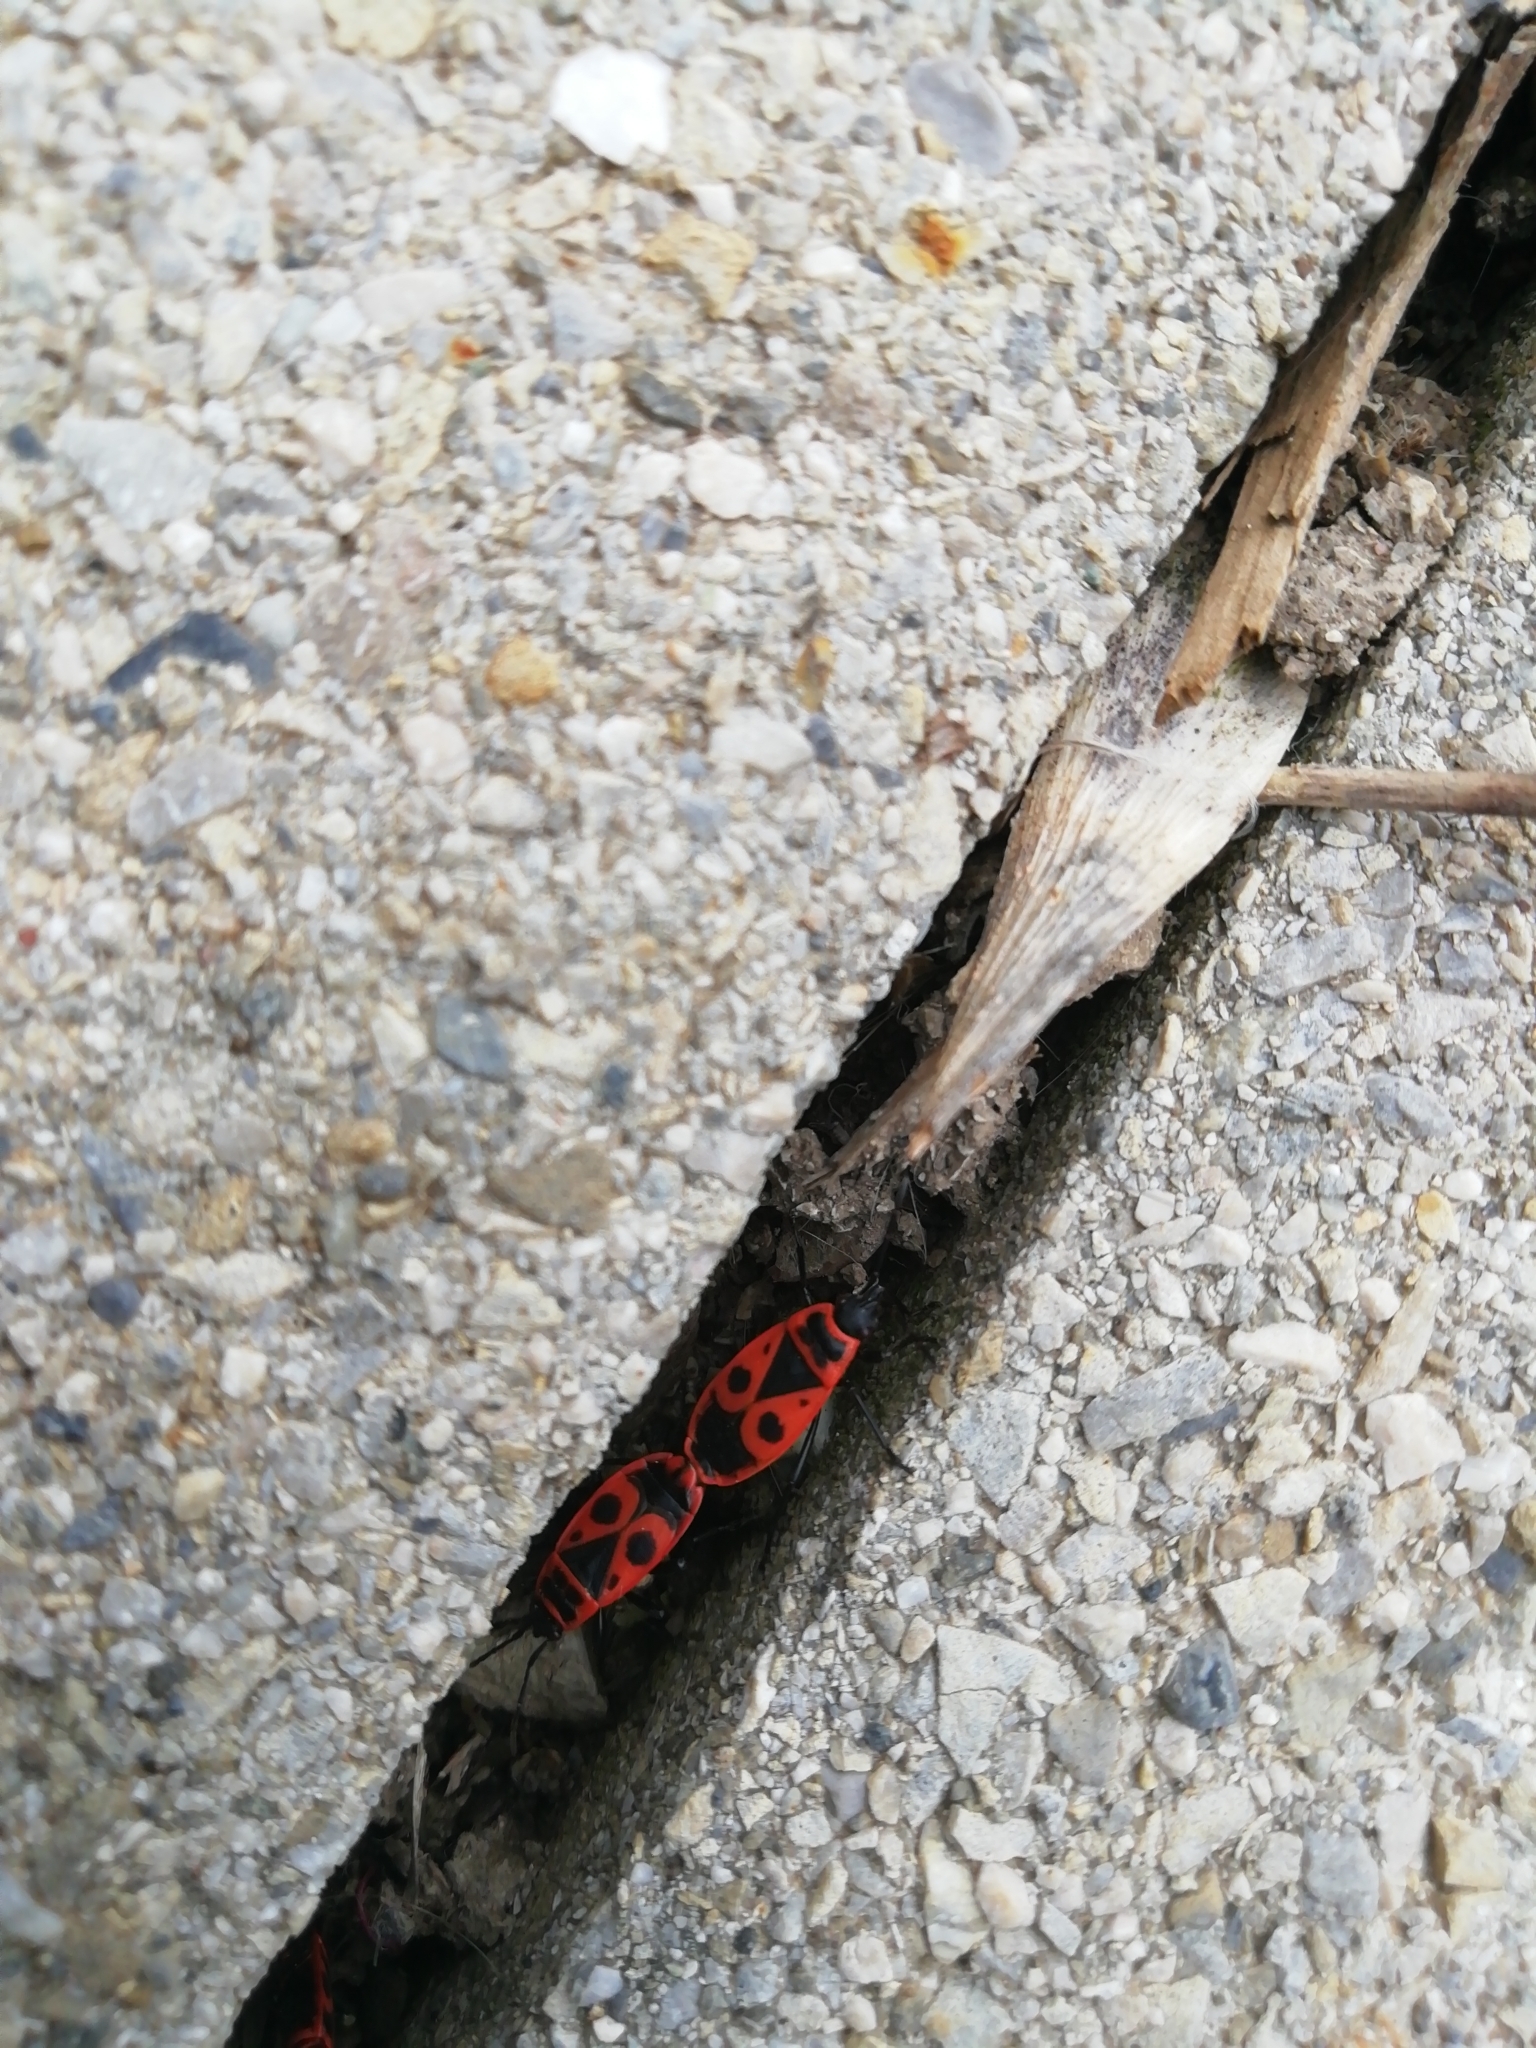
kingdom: Animalia
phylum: Arthropoda
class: Insecta
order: Hemiptera
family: Pyrrhocoridae
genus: Pyrrhocoris
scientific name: Pyrrhocoris apterus
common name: Firebug
